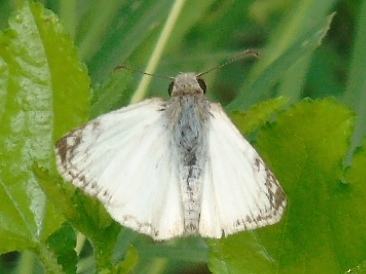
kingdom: Animalia
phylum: Arthropoda
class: Insecta
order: Lepidoptera
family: Hesperiidae
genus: Heliopetes
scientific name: Heliopetes laviana
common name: Laviana white-skipper
